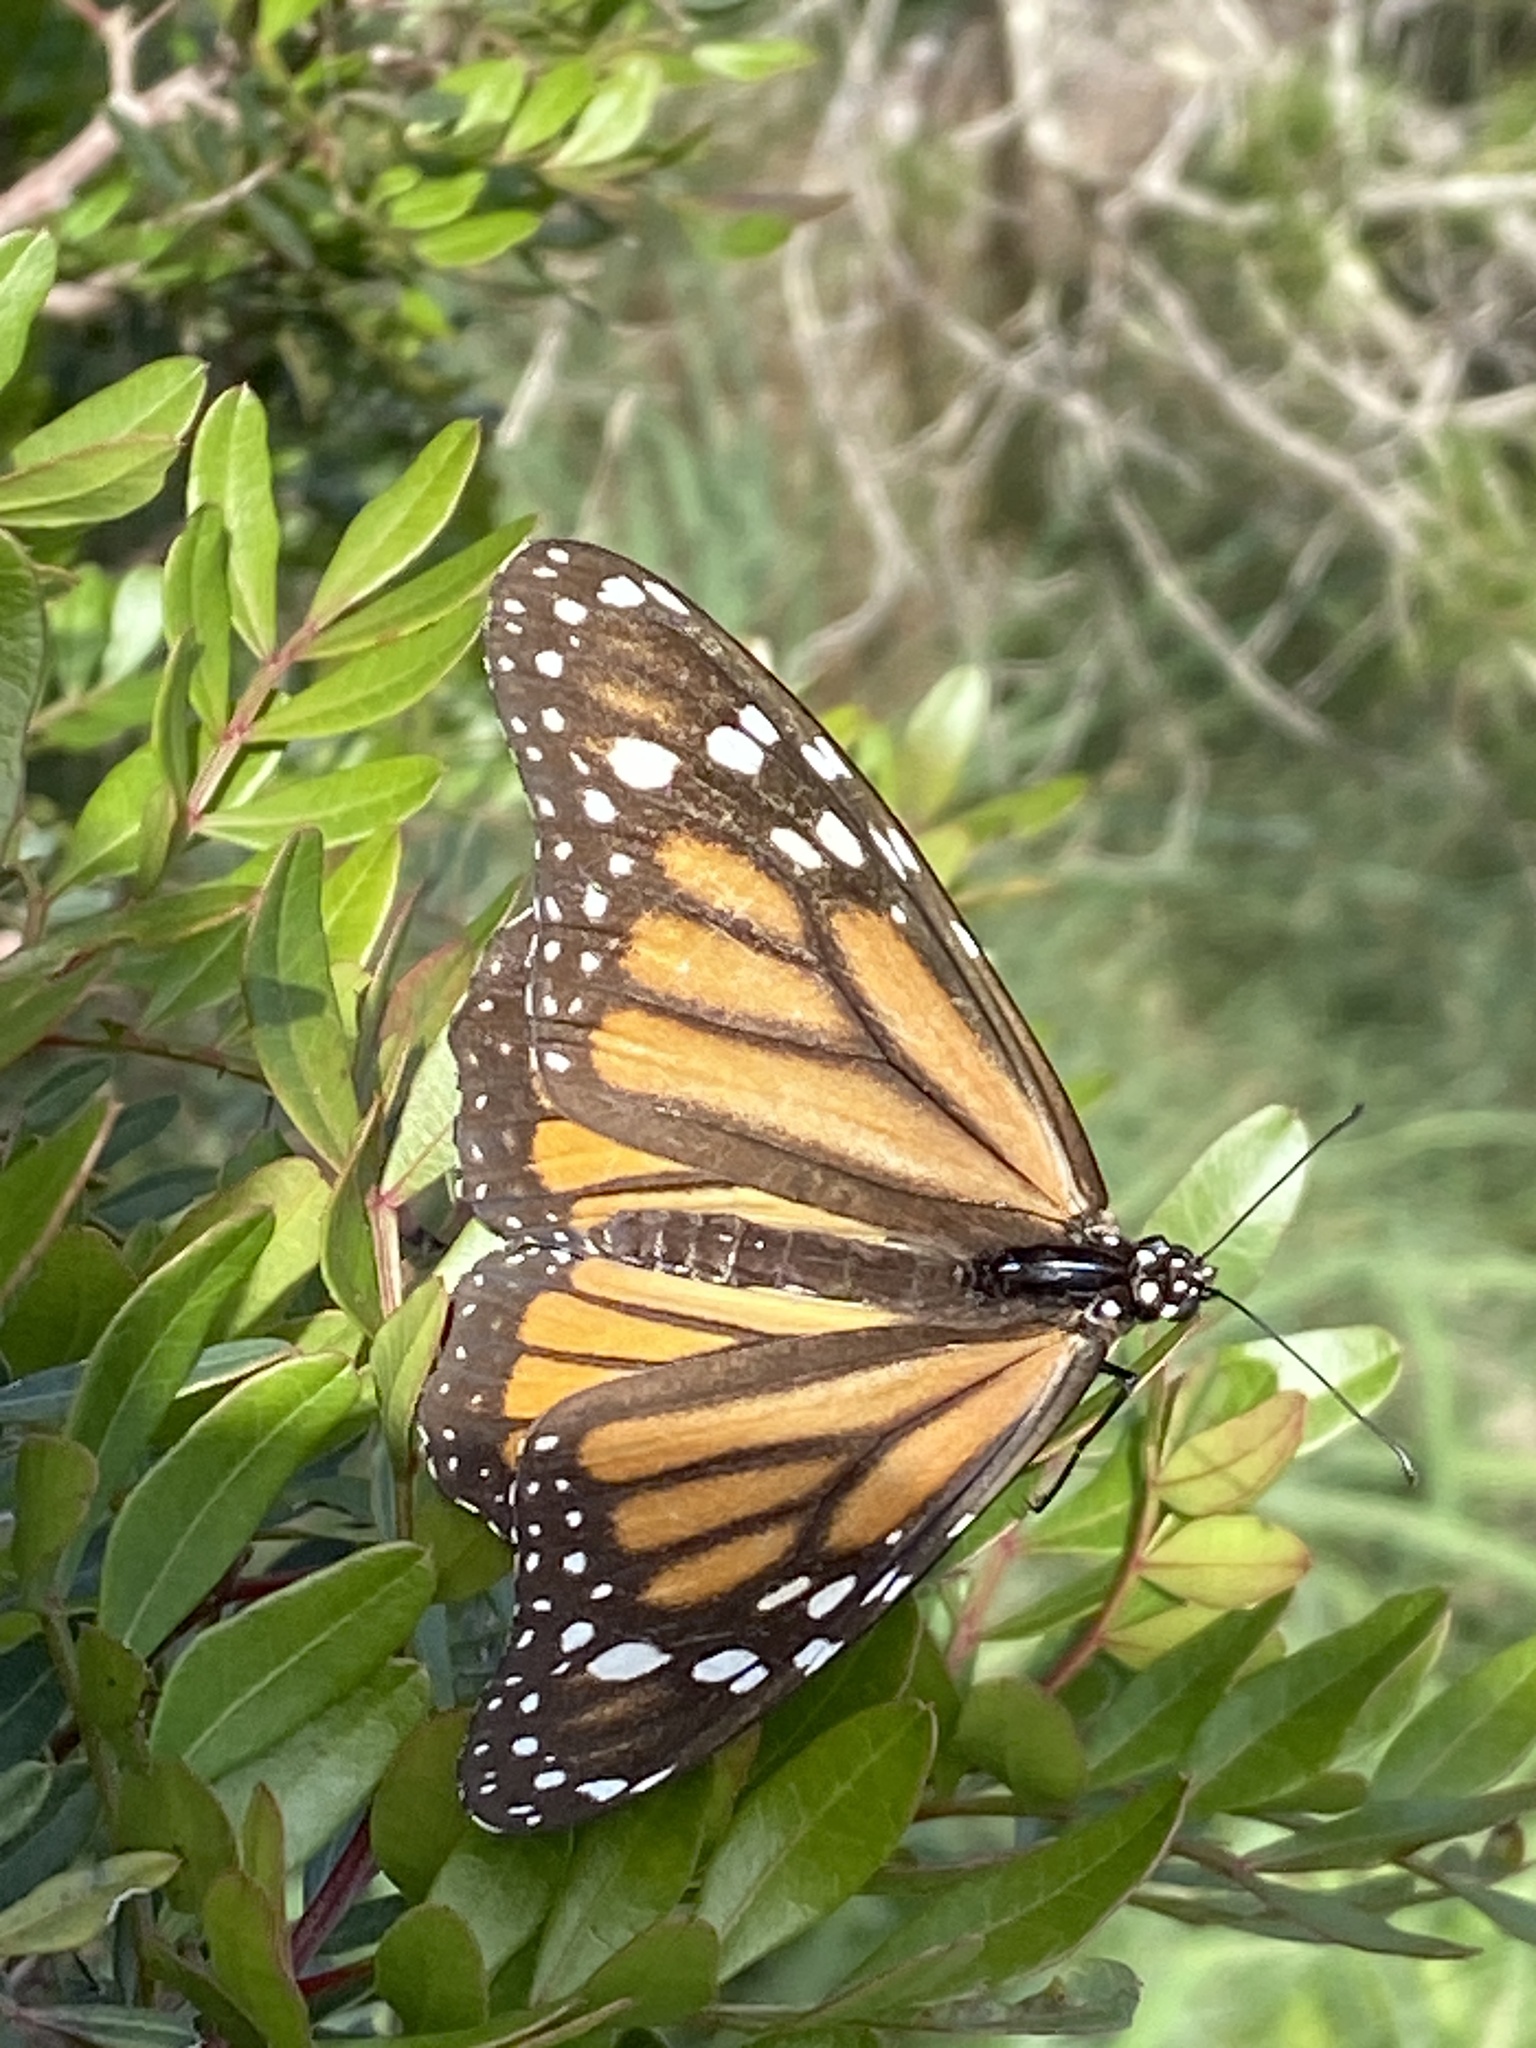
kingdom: Animalia
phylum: Arthropoda
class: Insecta
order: Lepidoptera
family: Nymphalidae
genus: Danaus
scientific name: Danaus plexippus
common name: Monarch
